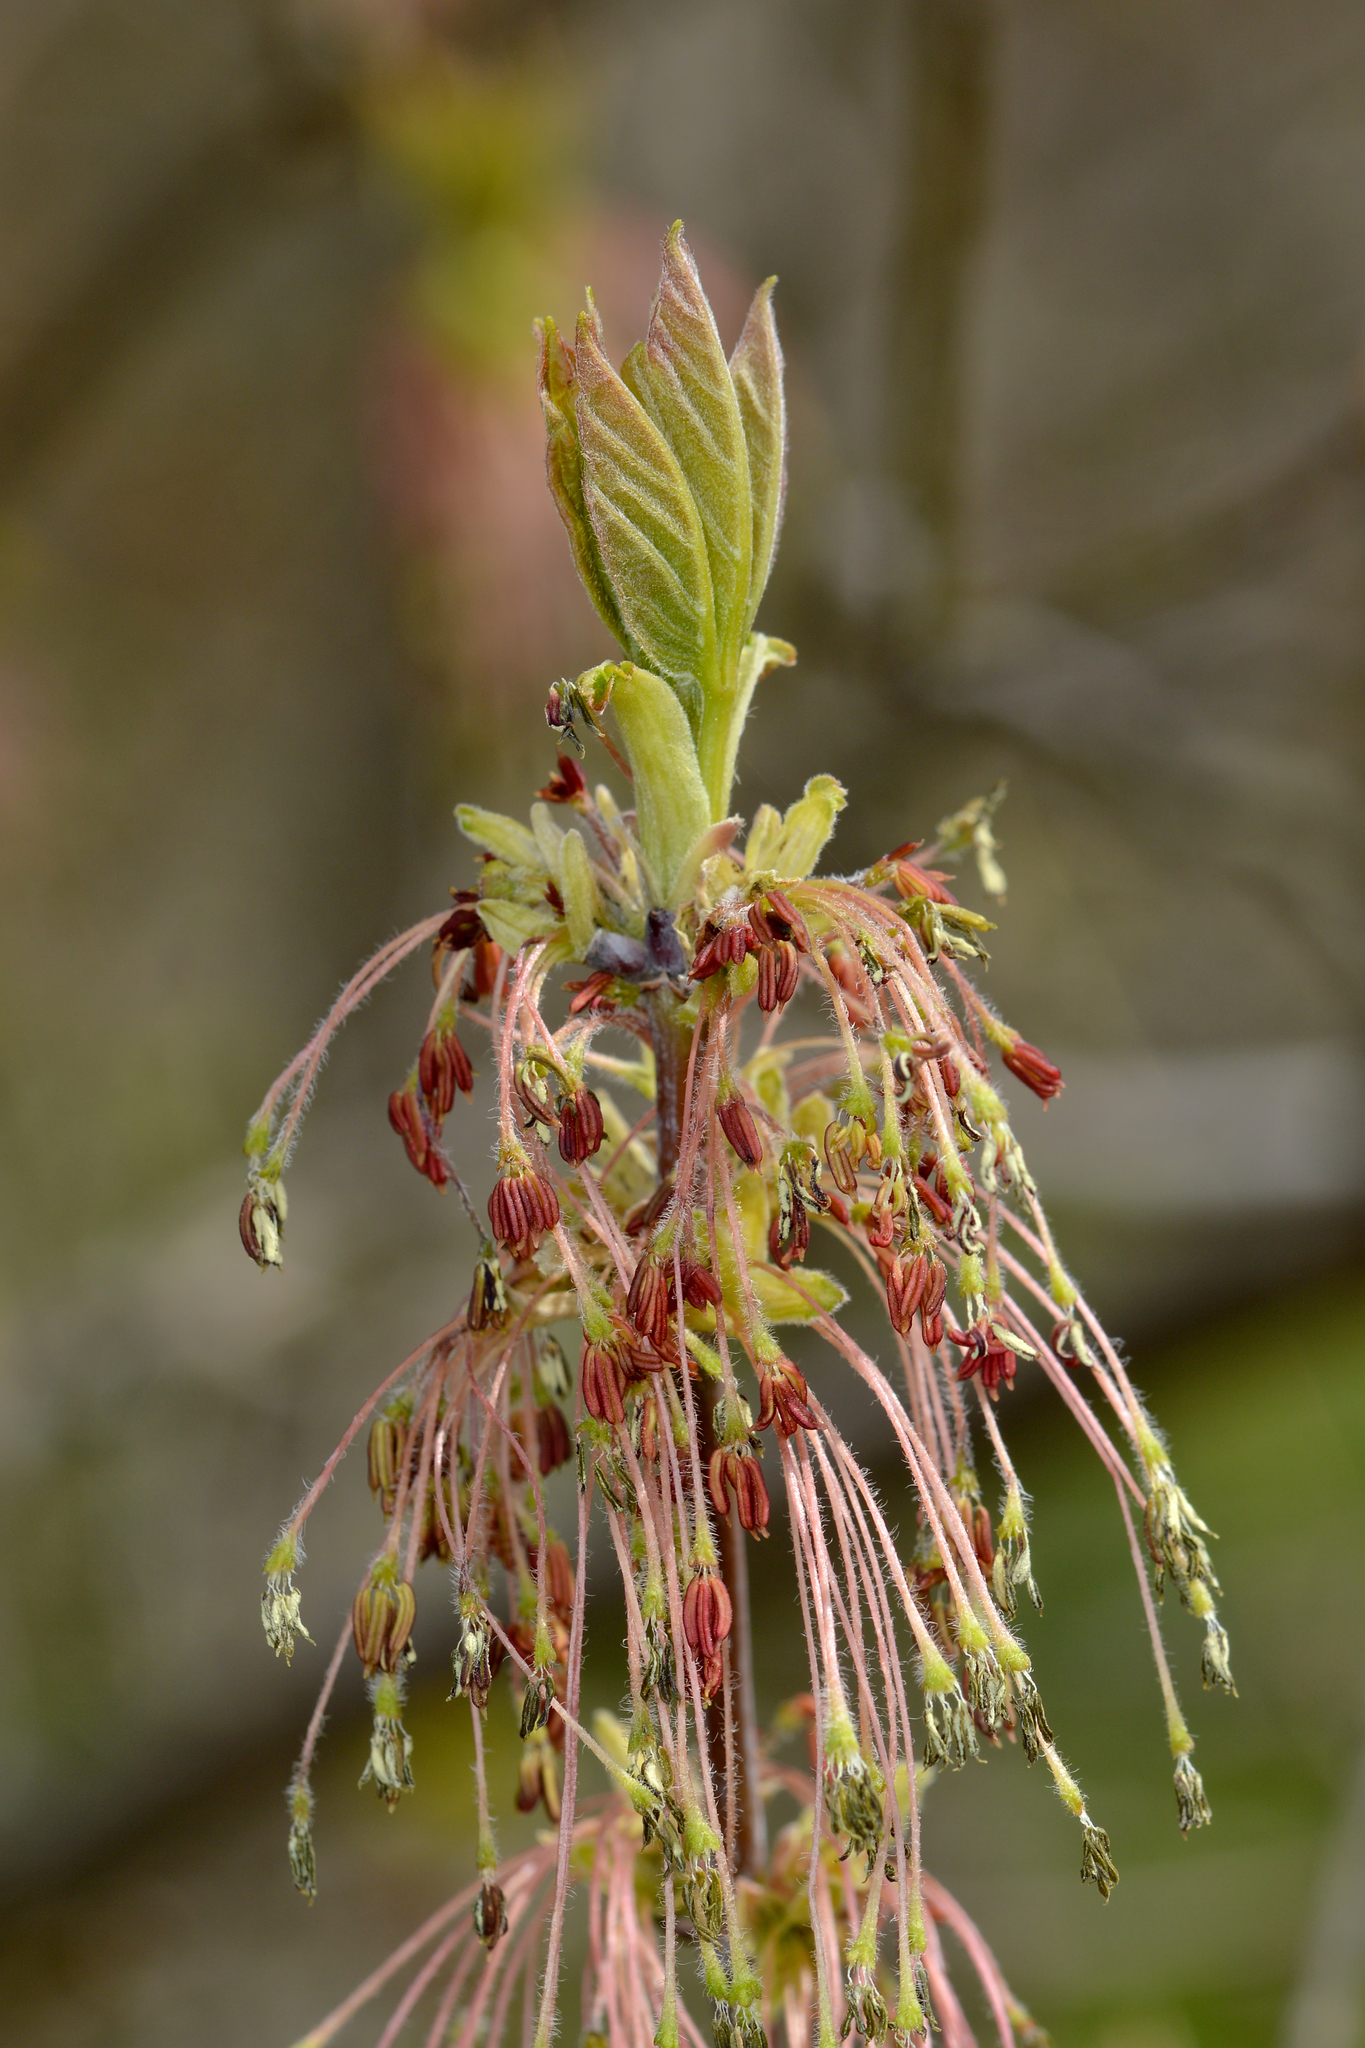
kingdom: Plantae
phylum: Tracheophyta
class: Magnoliopsida
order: Sapindales
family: Sapindaceae
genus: Acer
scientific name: Acer negundo
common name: Ashleaf maple
